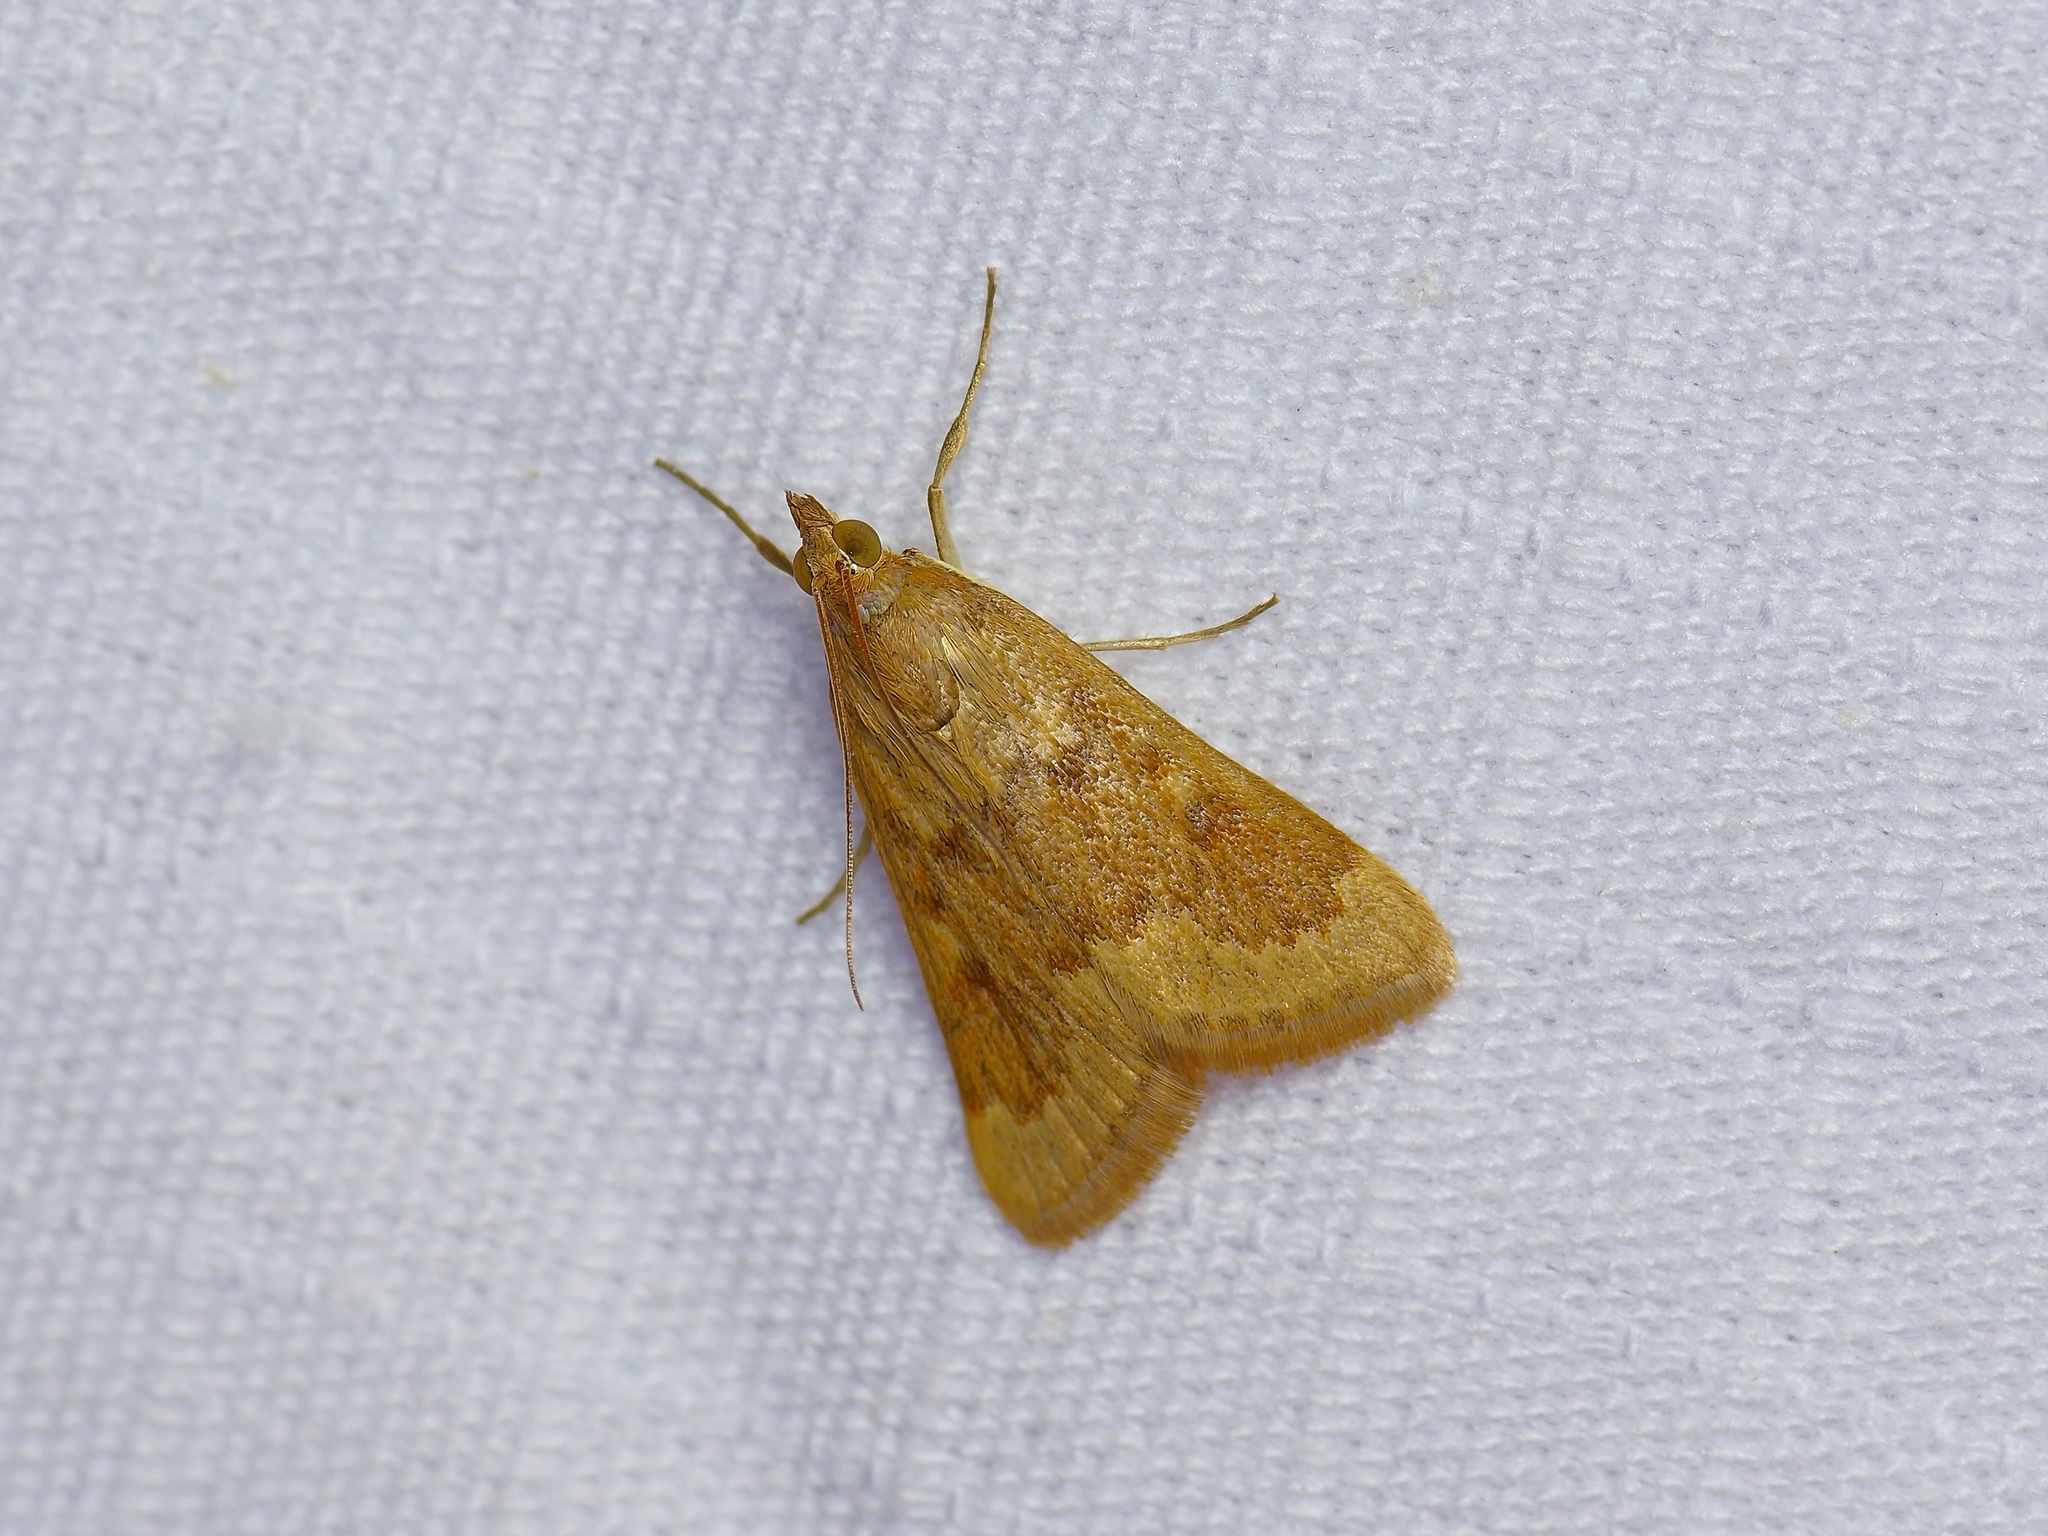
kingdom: Animalia
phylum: Arthropoda
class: Insecta
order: Lepidoptera
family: Crambidae
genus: Achyra
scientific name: Achyra rantalis
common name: Garden webworm
